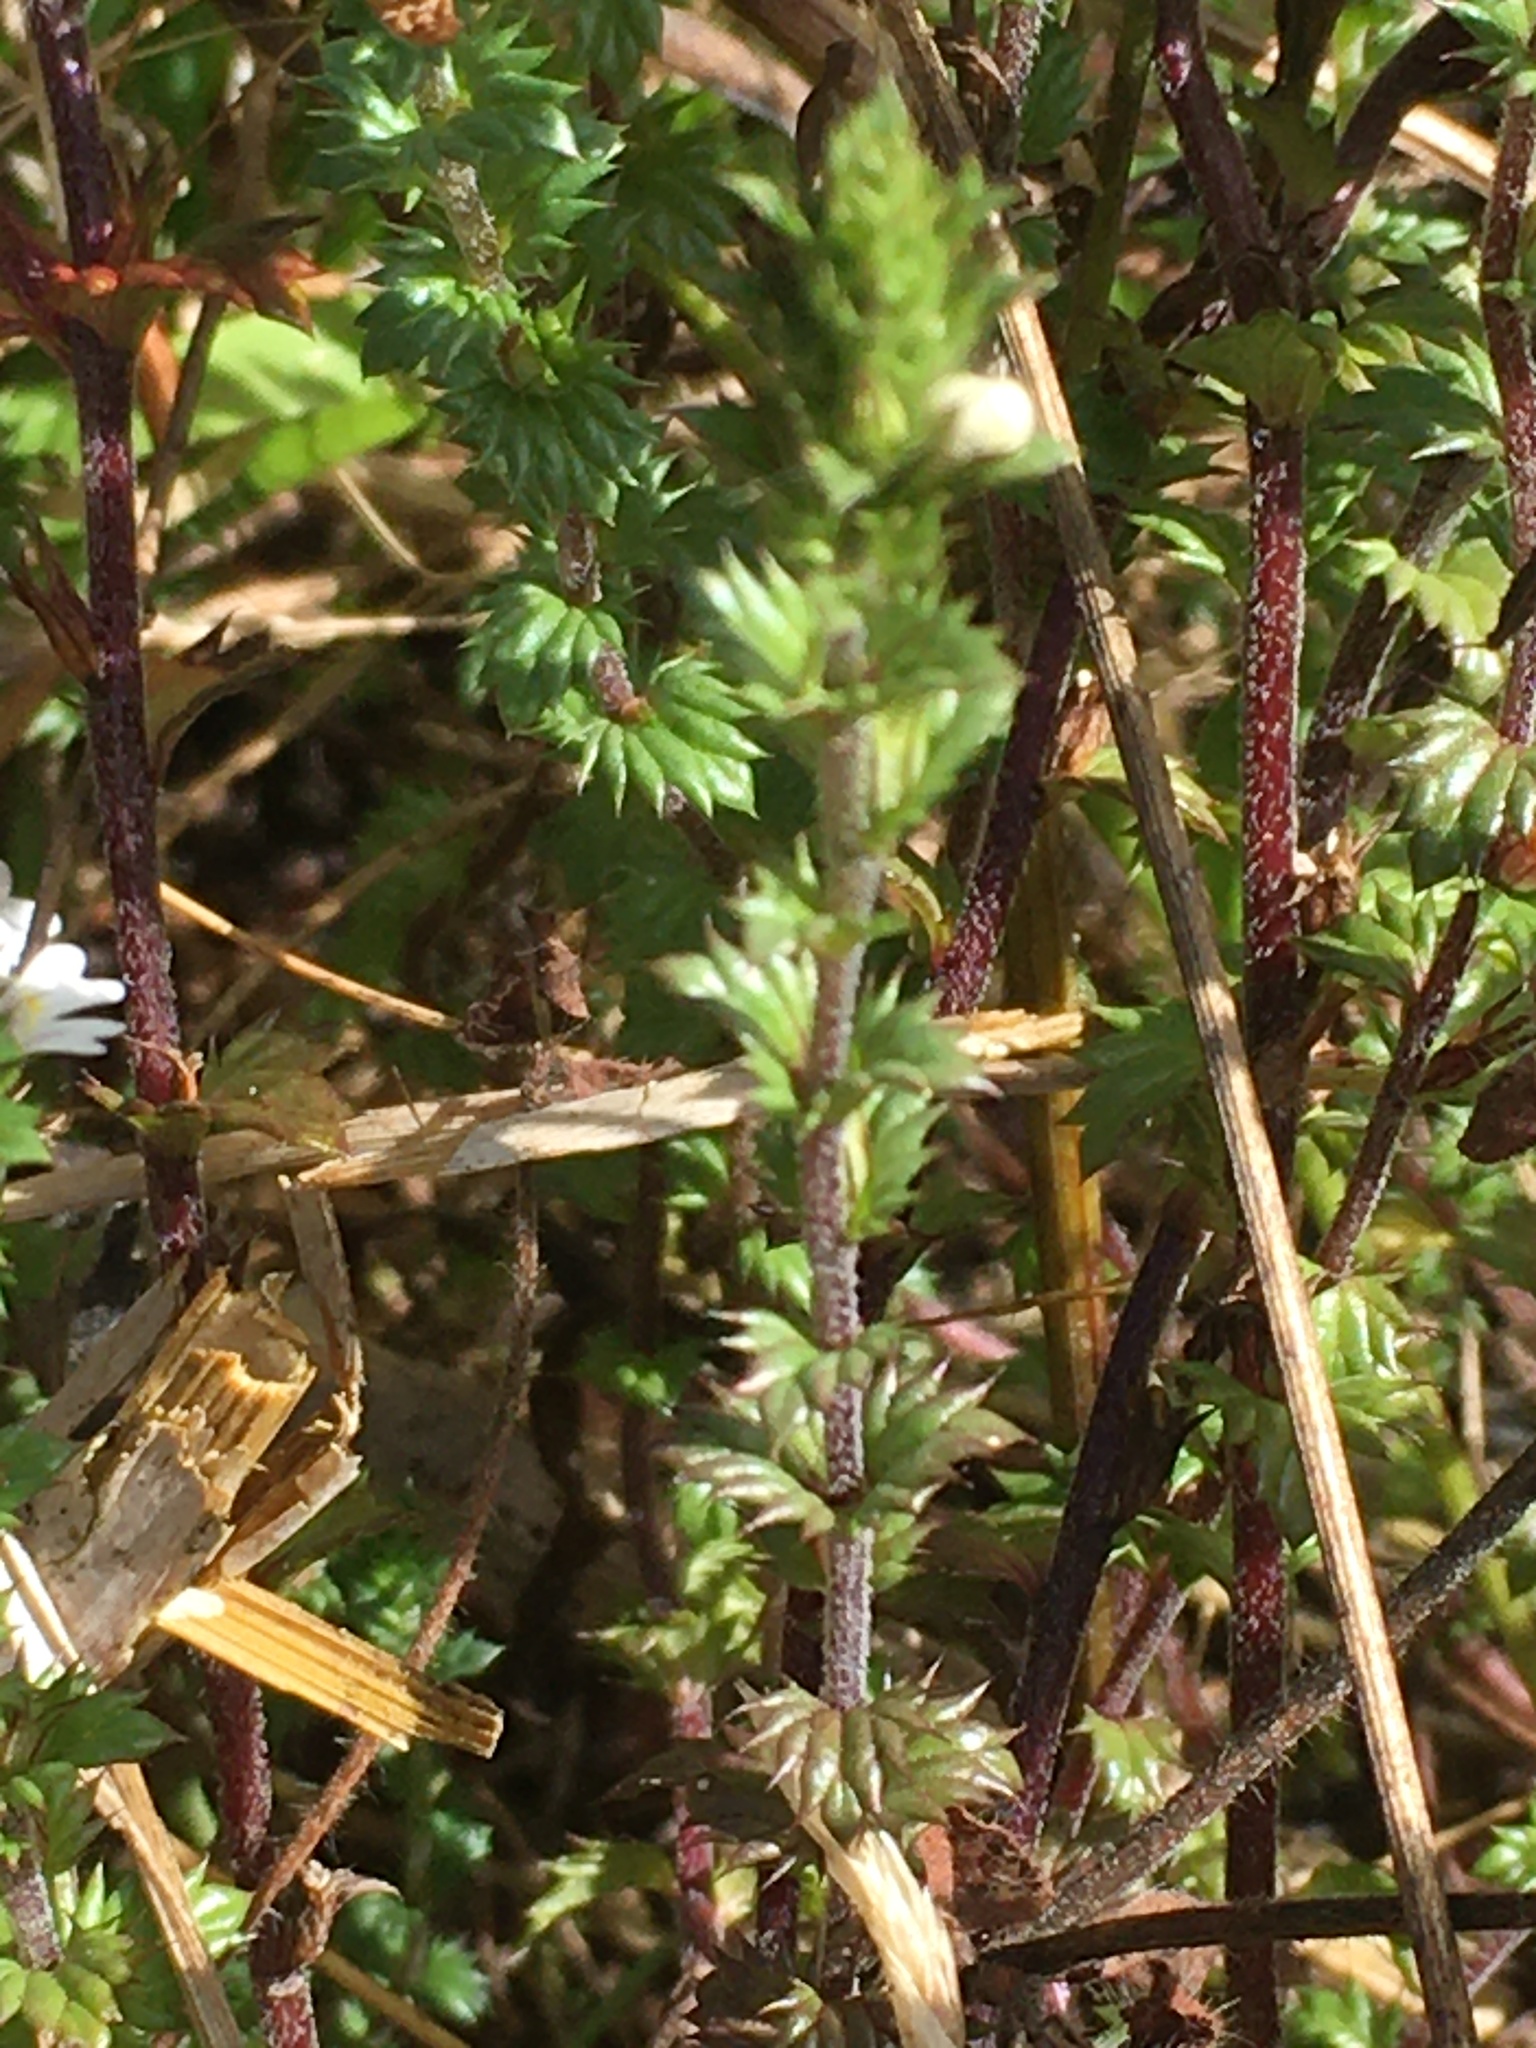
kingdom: Plantae
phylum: Tracheophyta
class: Magnoliopsida
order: Lamiales
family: Orobanchaceae
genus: Euphrasia
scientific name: Euphrasia nemorosa
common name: Common eyebright
